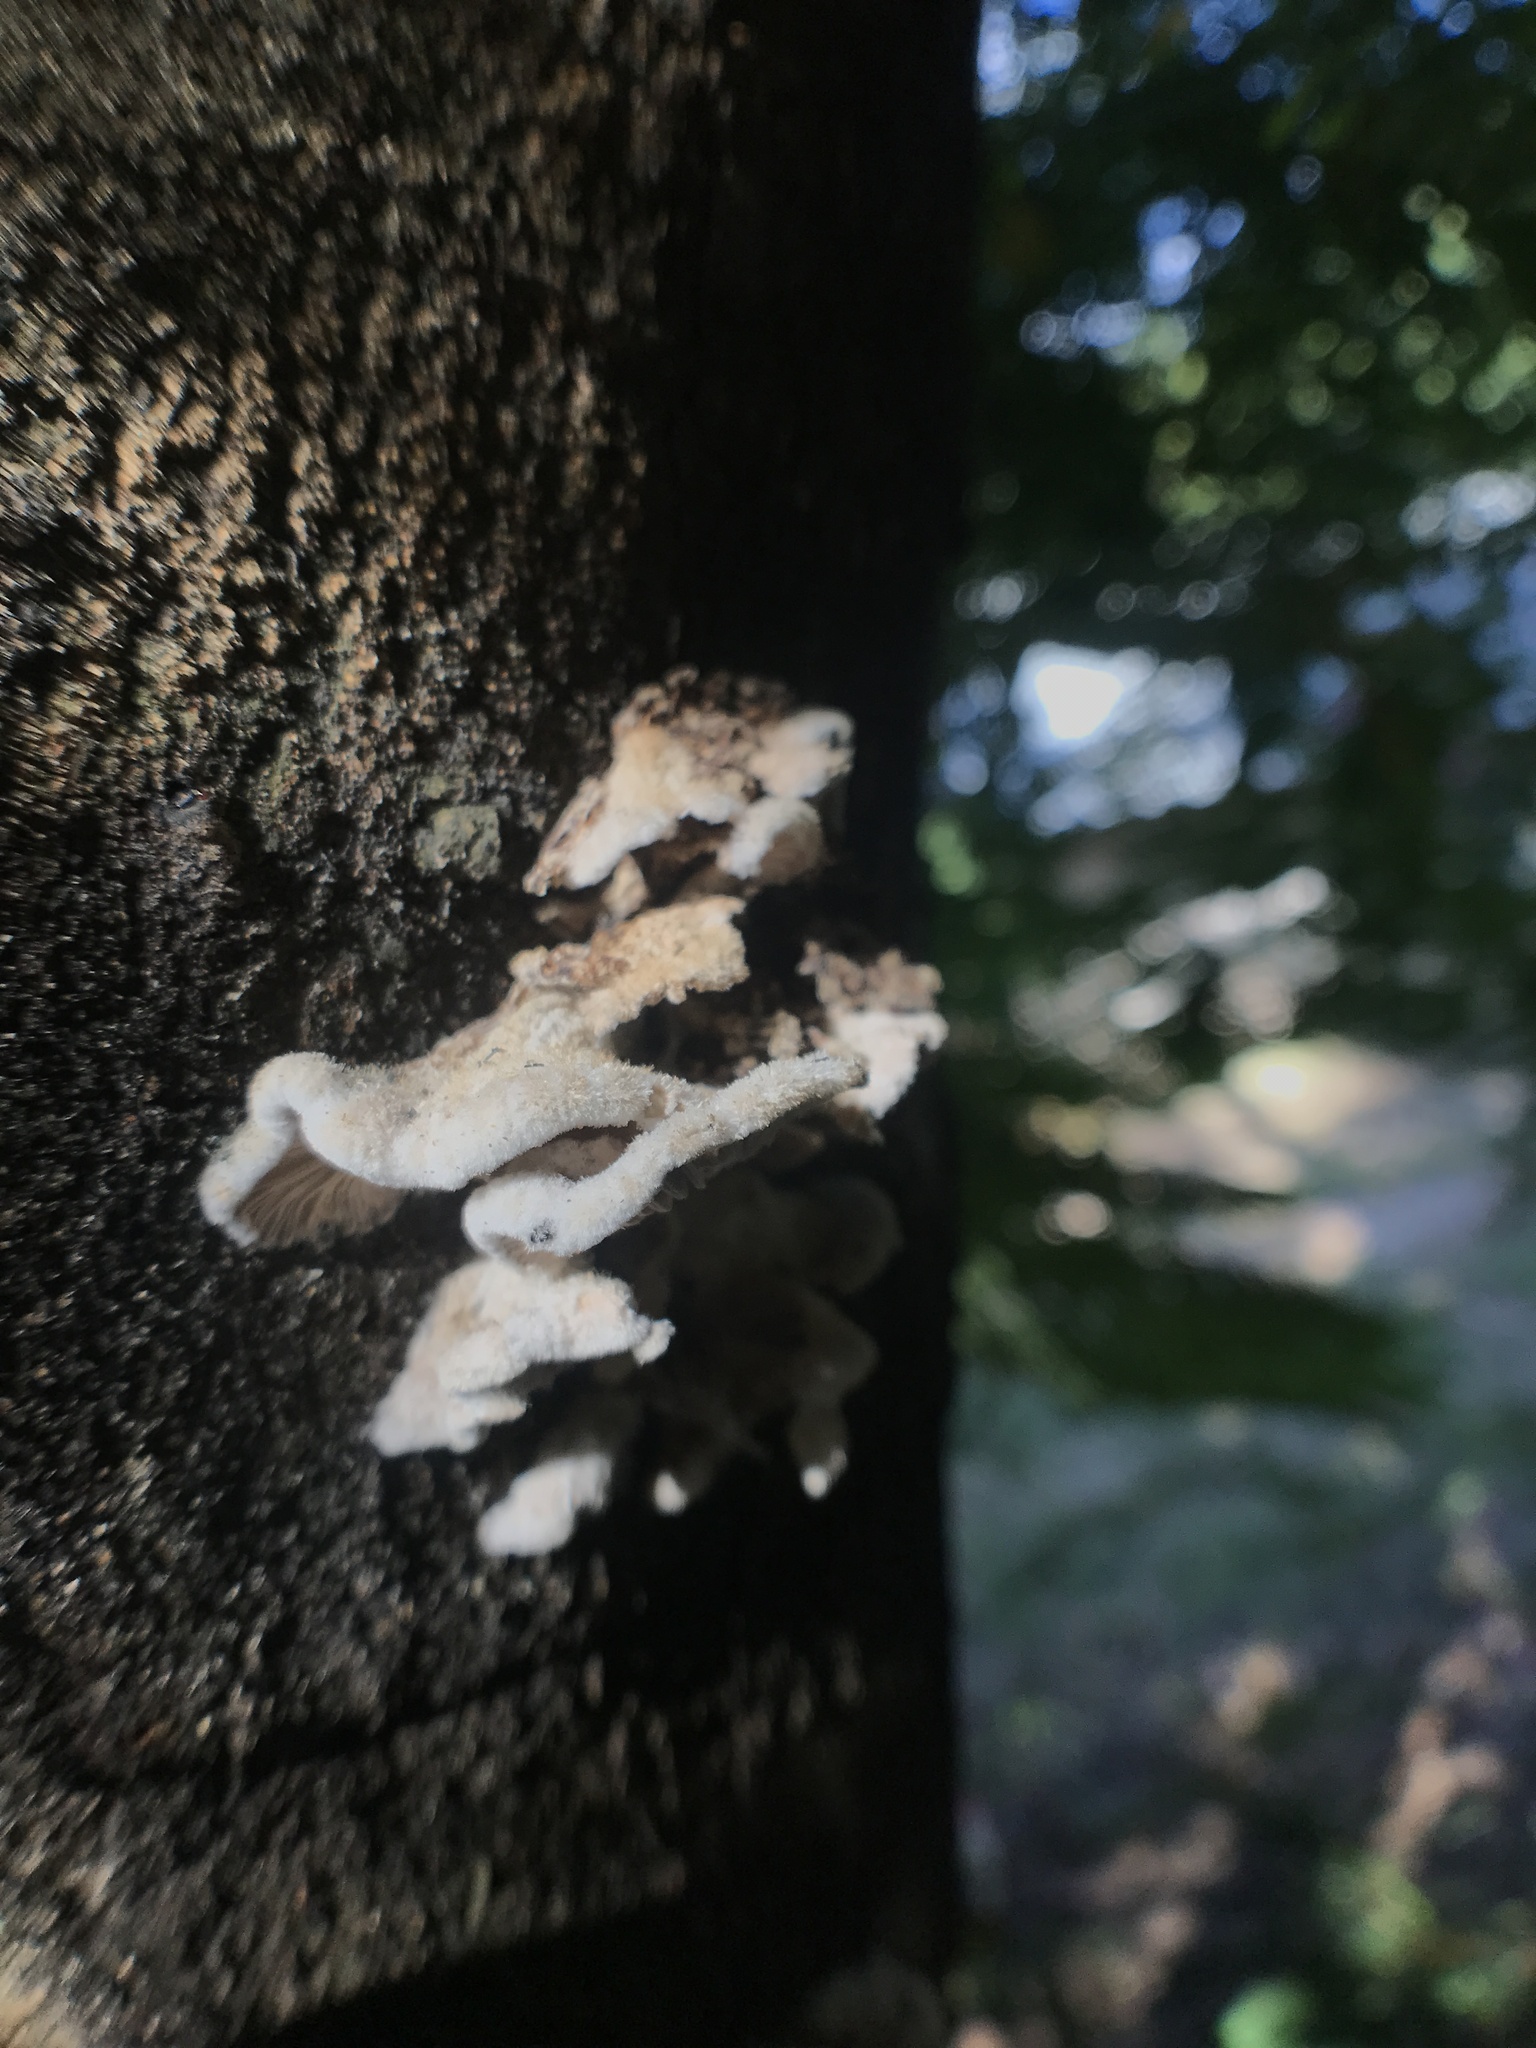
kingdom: Fungi
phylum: Basidiomycota
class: Agaricomycetes
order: Agaricales
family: Schizophyllaceae
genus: Schizophyllum
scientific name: Schizophyllum commune
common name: Common porecrust
